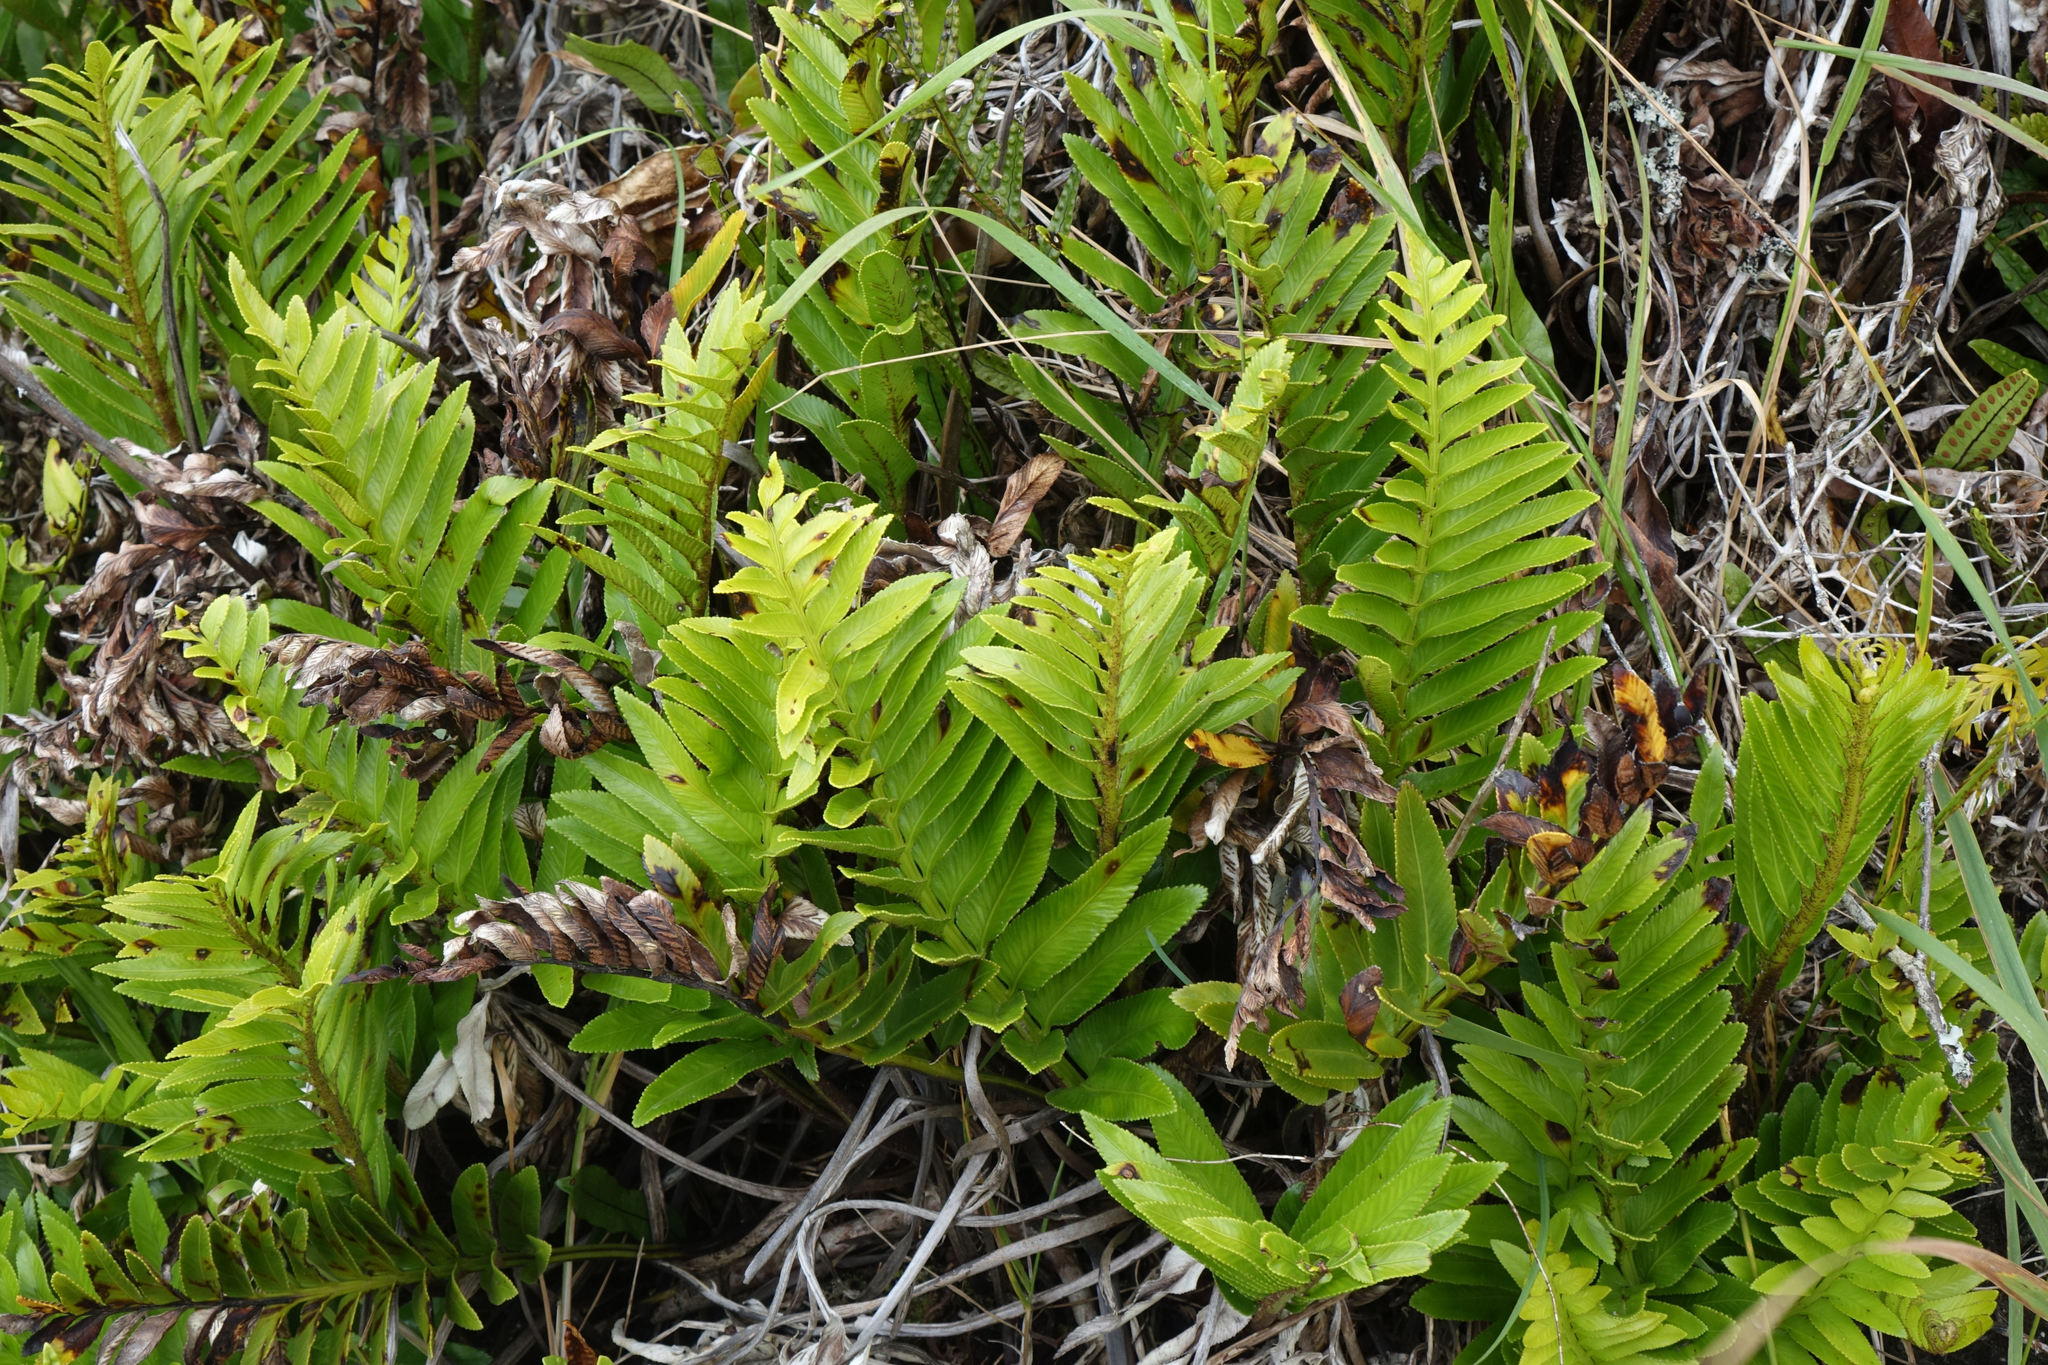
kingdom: Plantae
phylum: Tracheophyta
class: Polypodiopsida
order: Polypodiales
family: Aspleniaceae
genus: Asplenium
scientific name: Asplenium obtusatum
